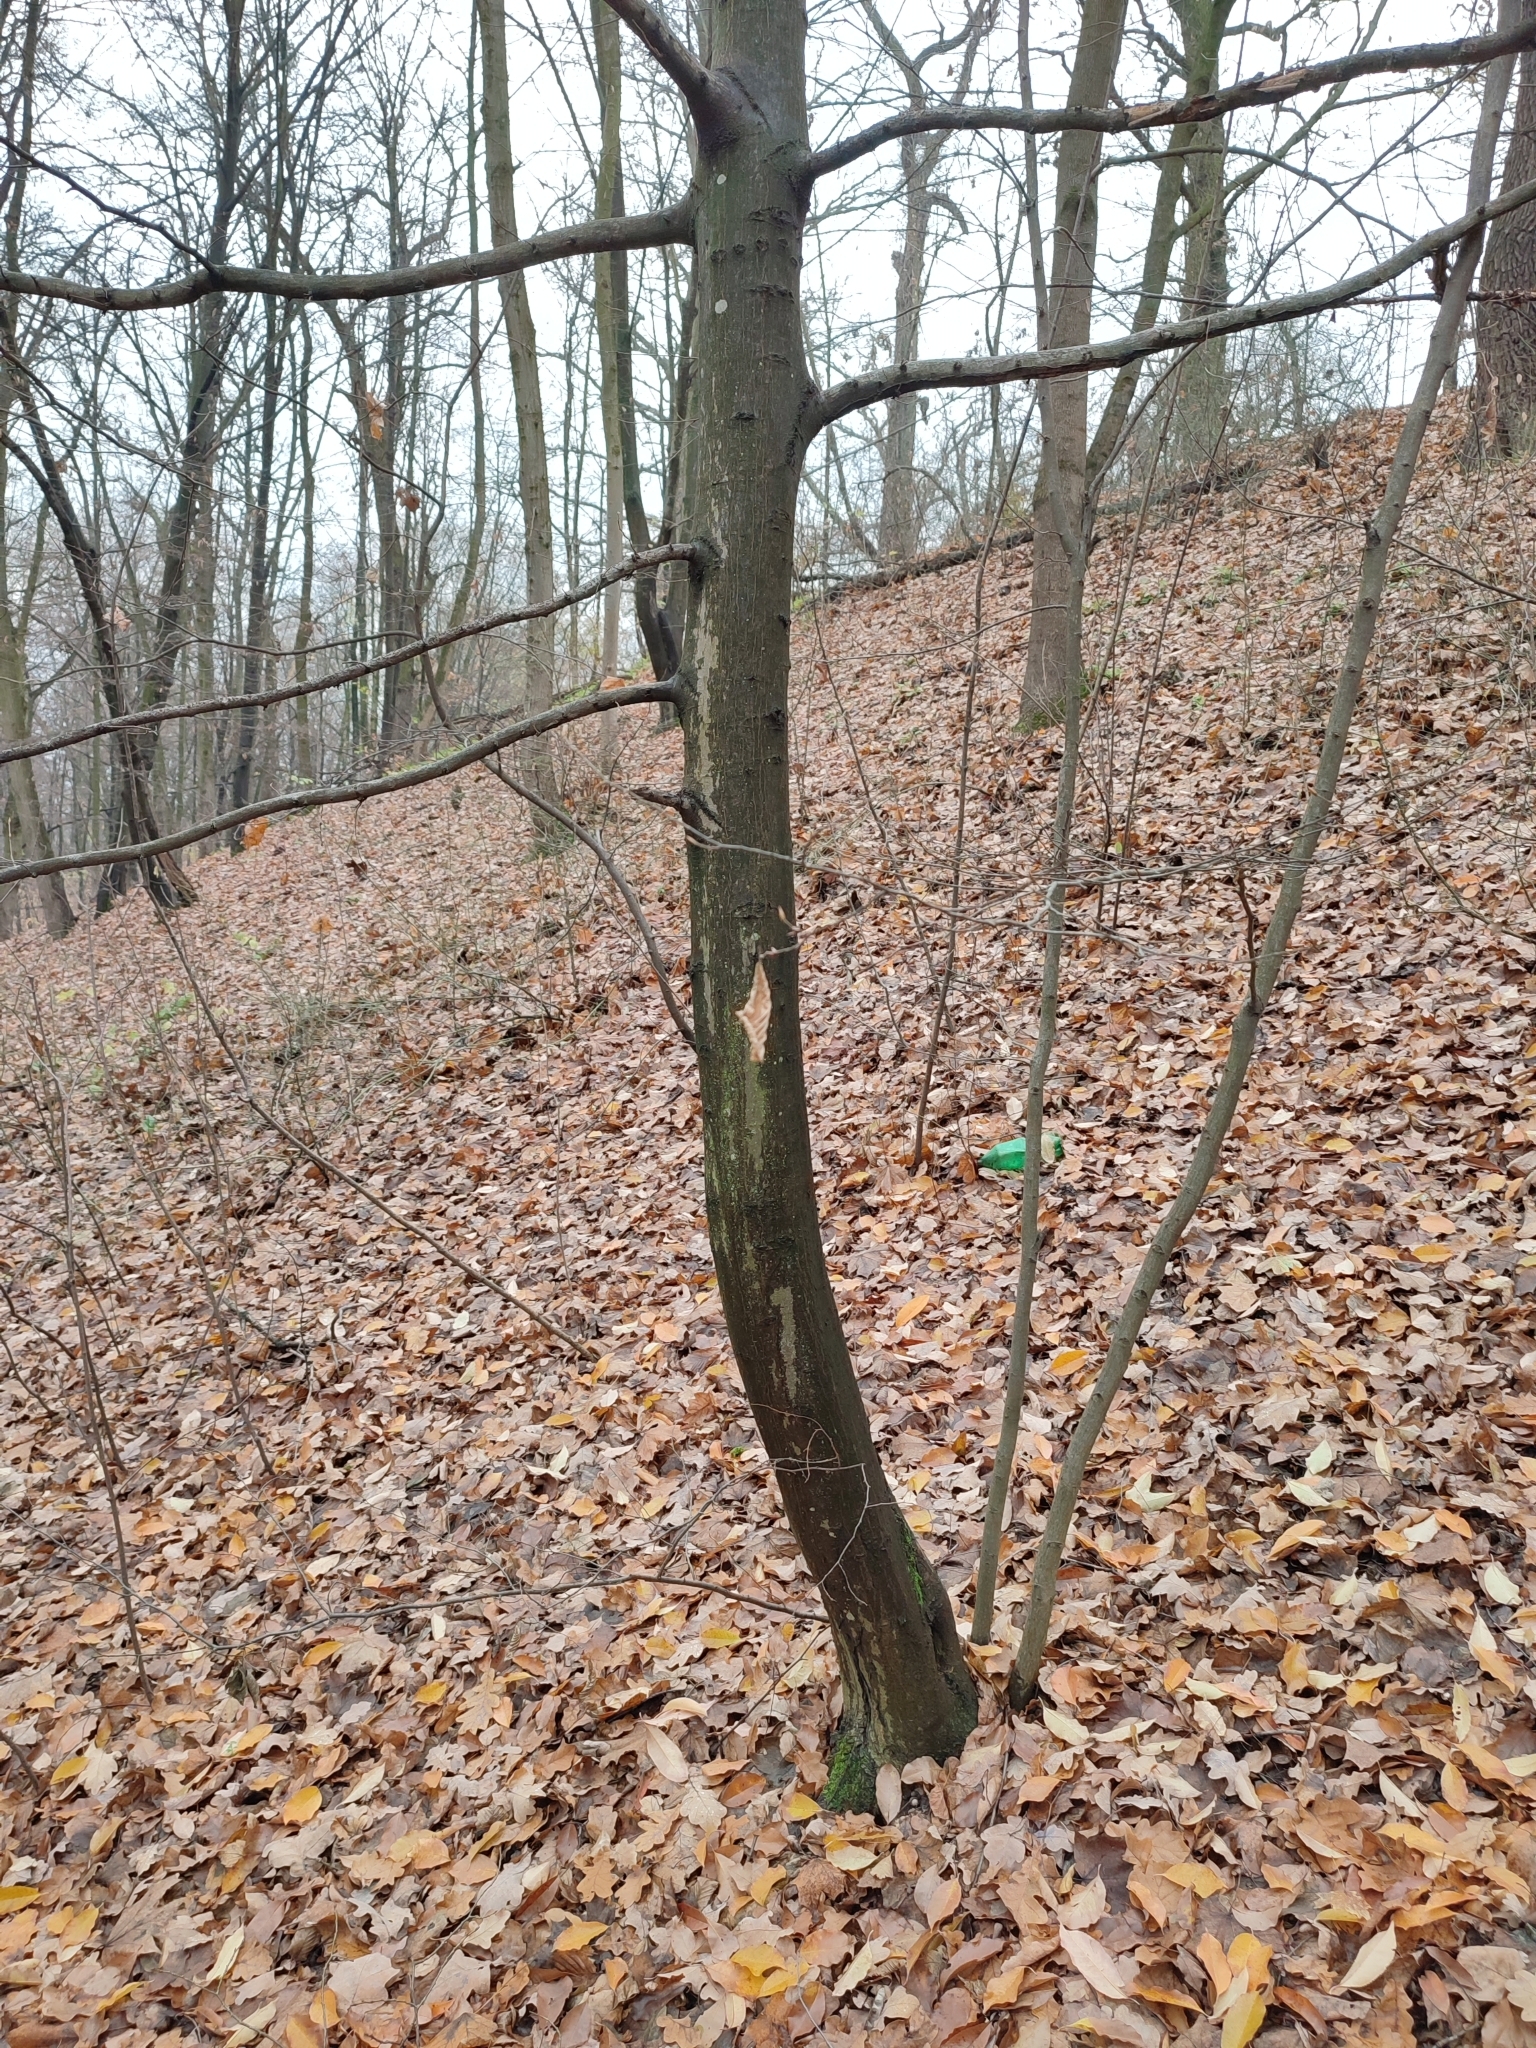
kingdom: Plantae
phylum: Tracheophyta
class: Magnoliopsida
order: Fagales
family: Betulaceae
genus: Carpinus
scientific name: Carpinus betulus
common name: Hornbeam
